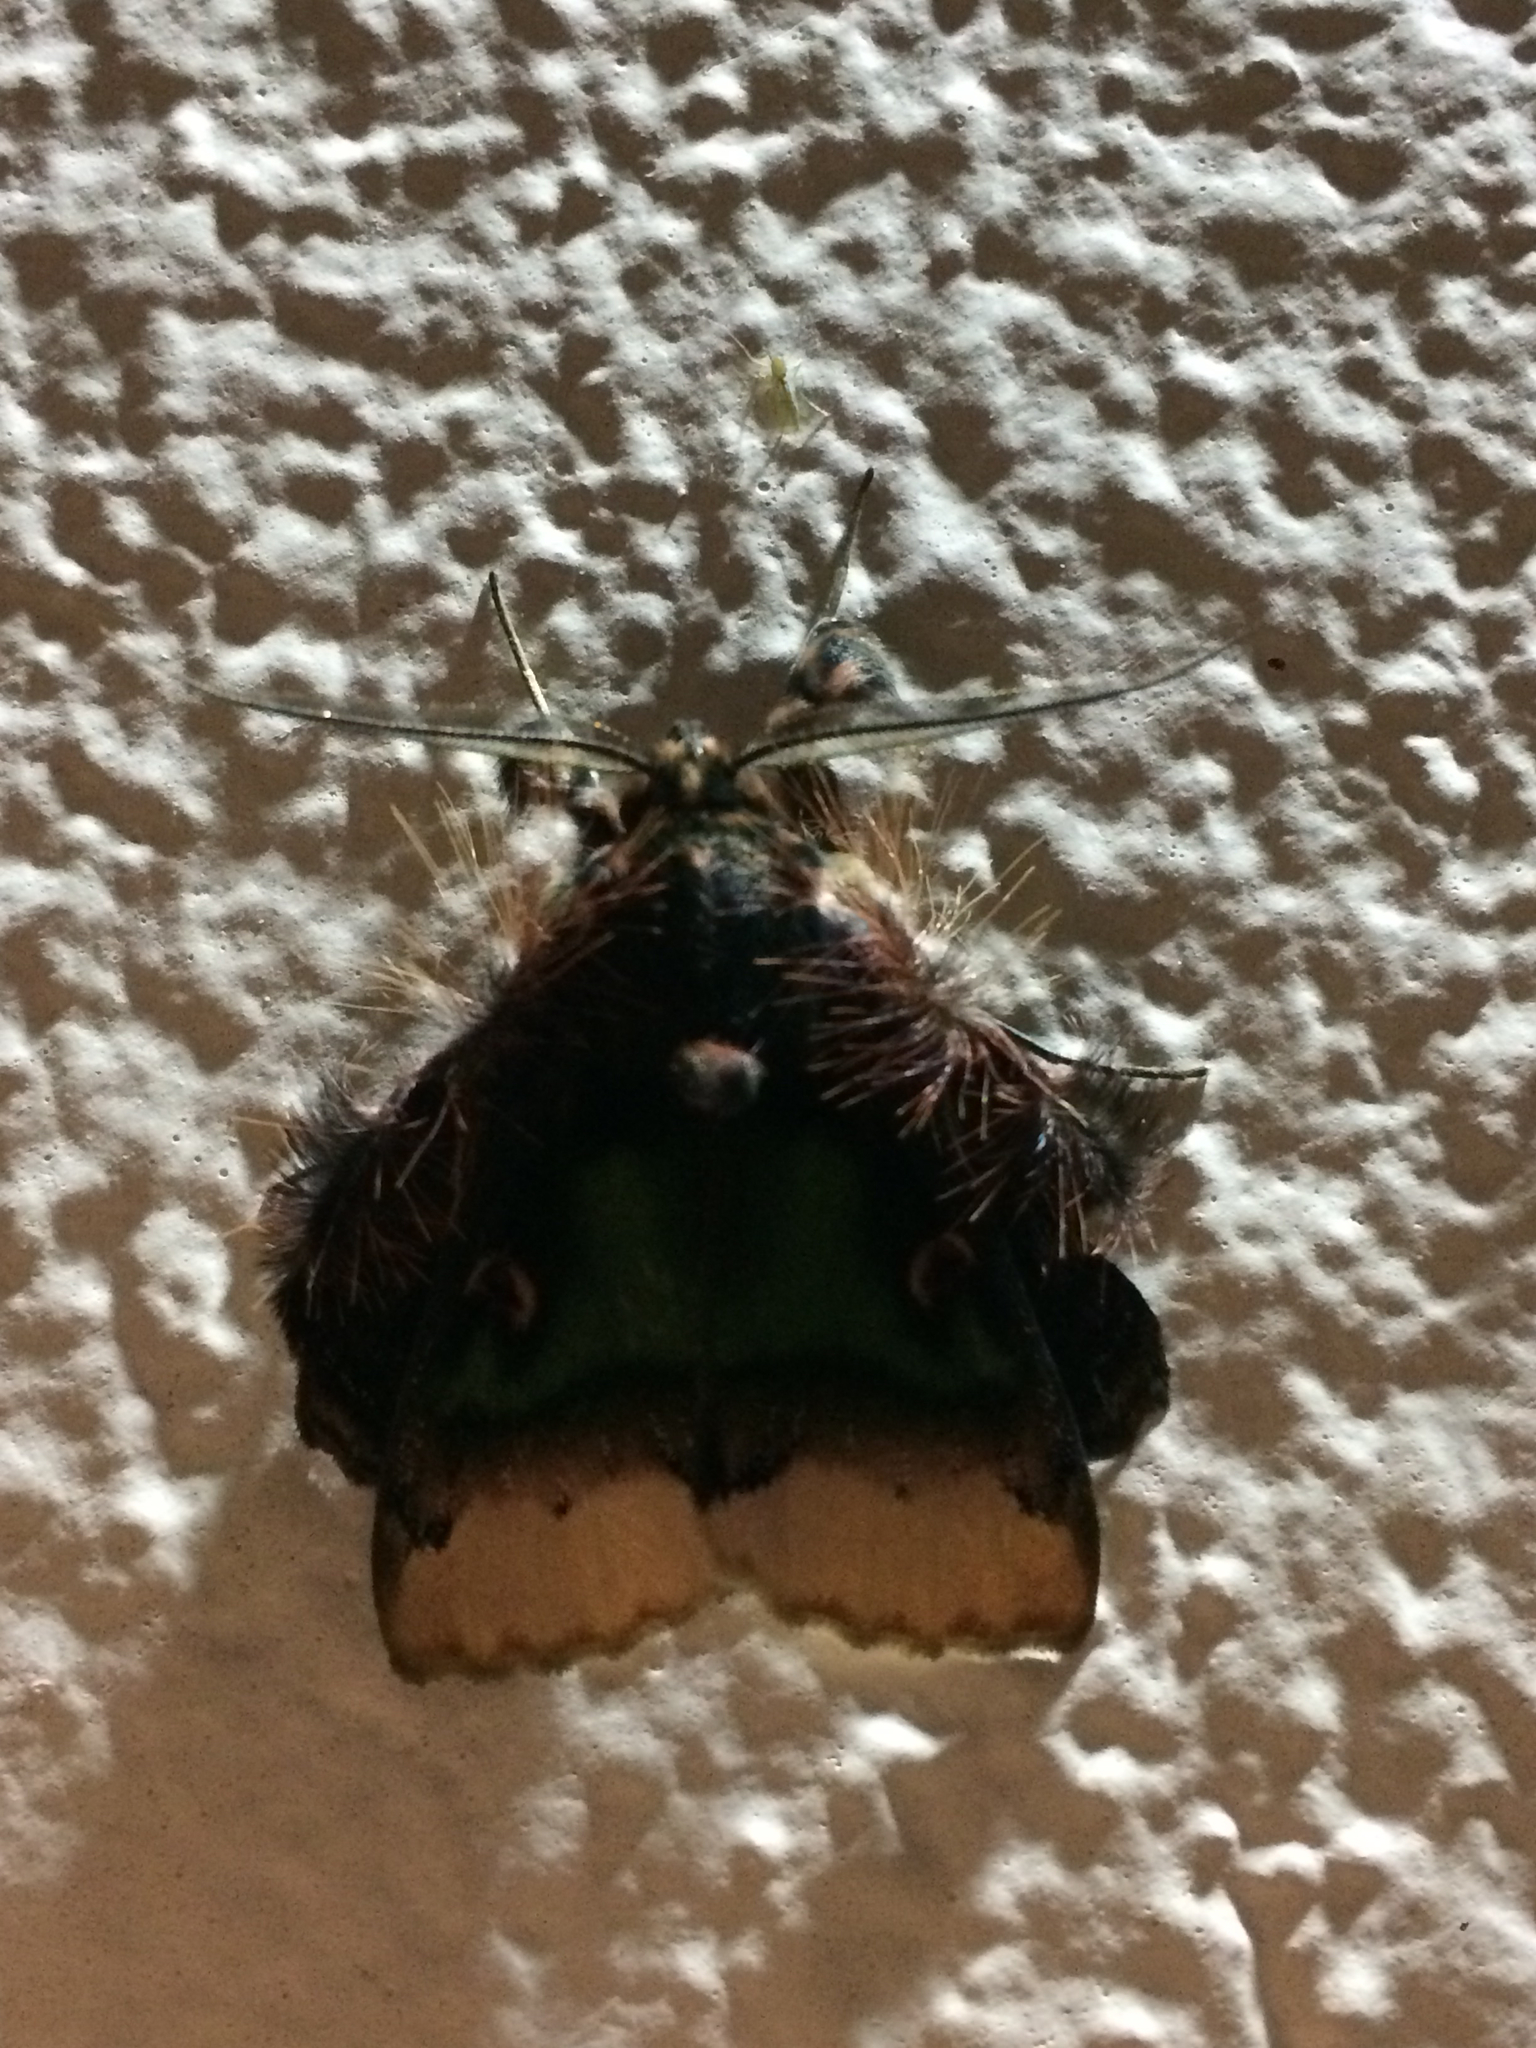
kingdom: Animalia
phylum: Arthropoda
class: Insecta
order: Lepidoptera
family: Erebidae
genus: Ceroctena
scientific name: Ceroctena amynta
